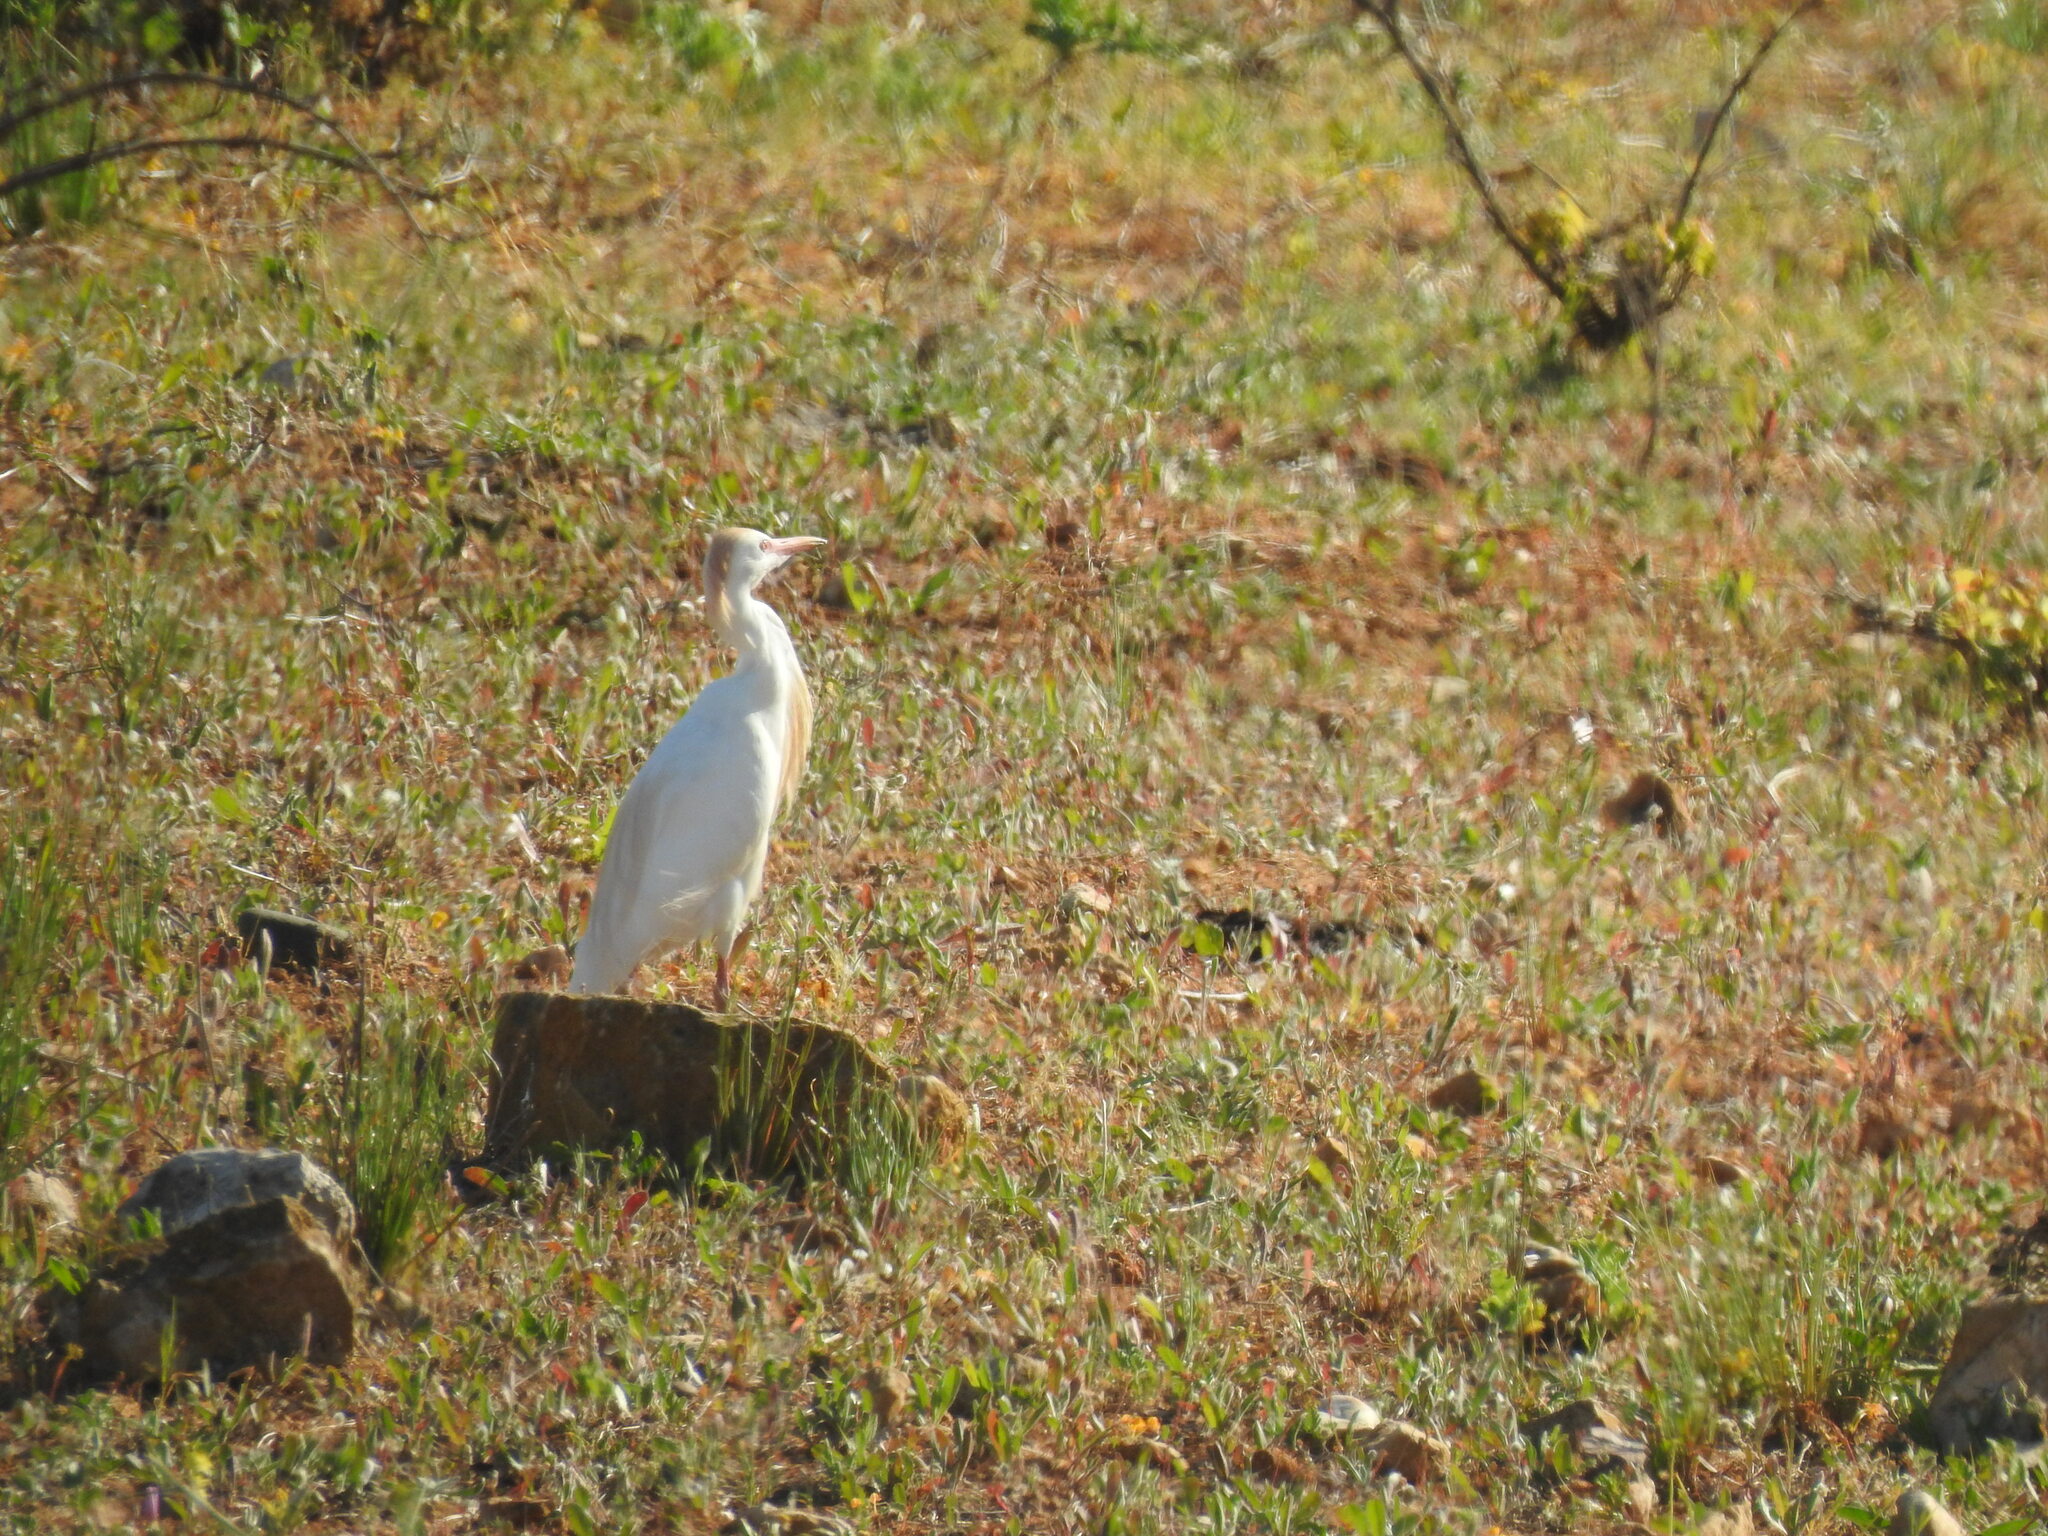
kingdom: Animalia
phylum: Chordata
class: Aves
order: Pelecaniformes
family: Ardeidae
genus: Bubulcus
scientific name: Bubulcus ibis
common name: Cattle egret
